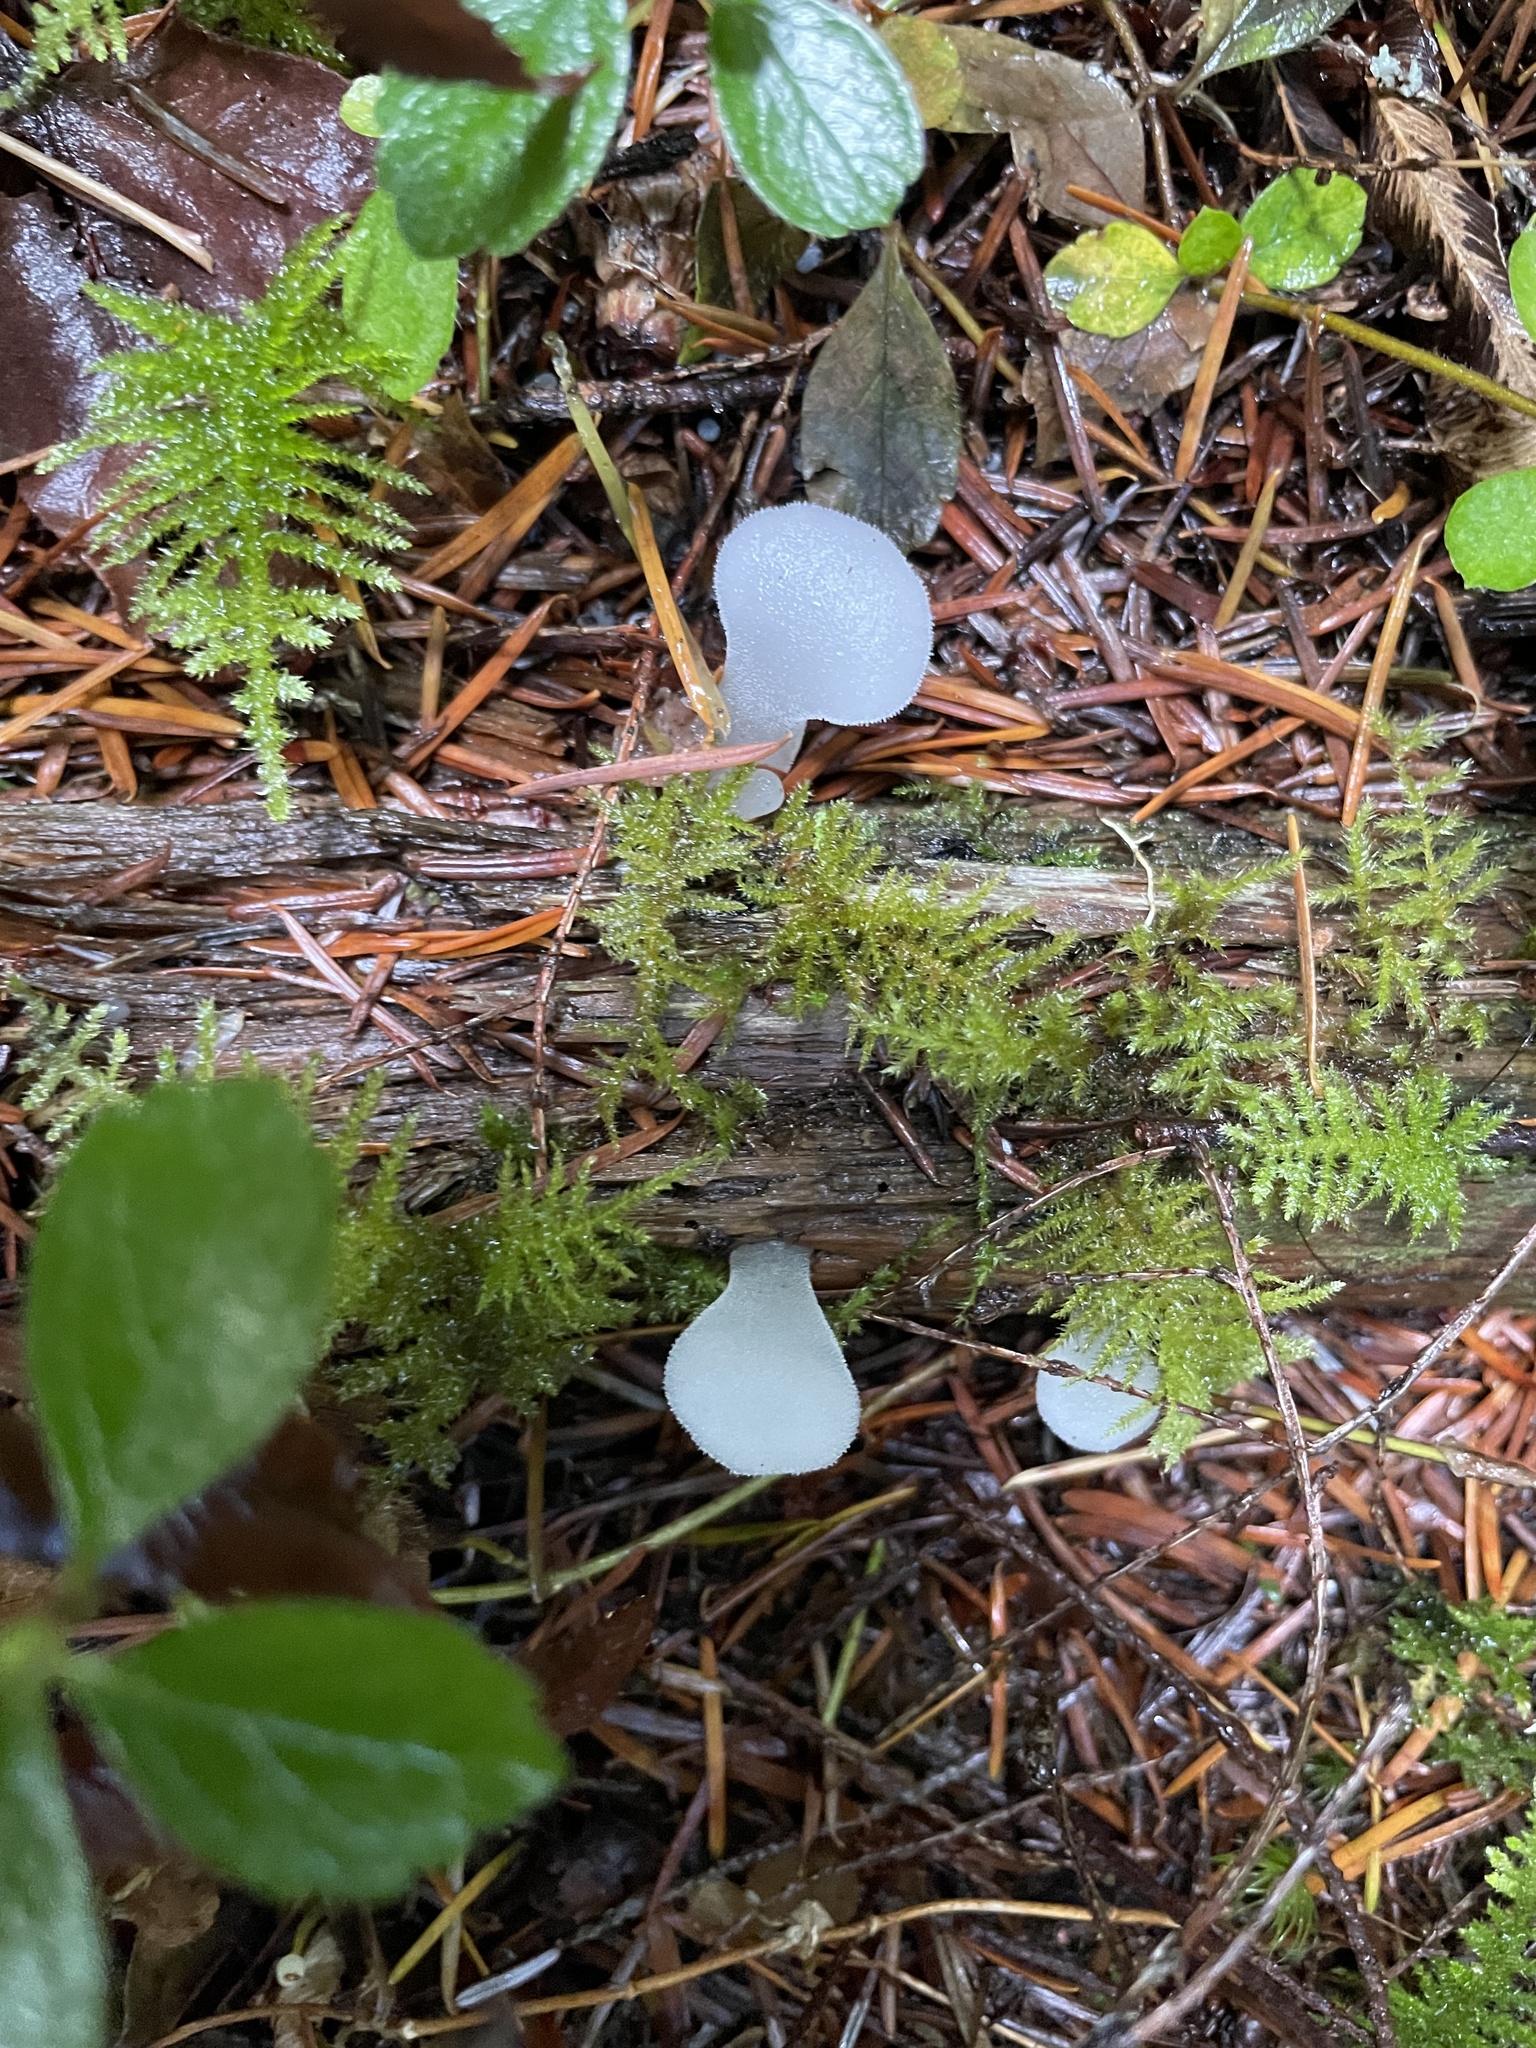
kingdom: Fungi
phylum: Basidiomycota
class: Agaricomycetes
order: Auriculariales
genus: Pseudohydnum
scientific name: Pseudohydnum gelatinosum
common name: Jelly tongue
